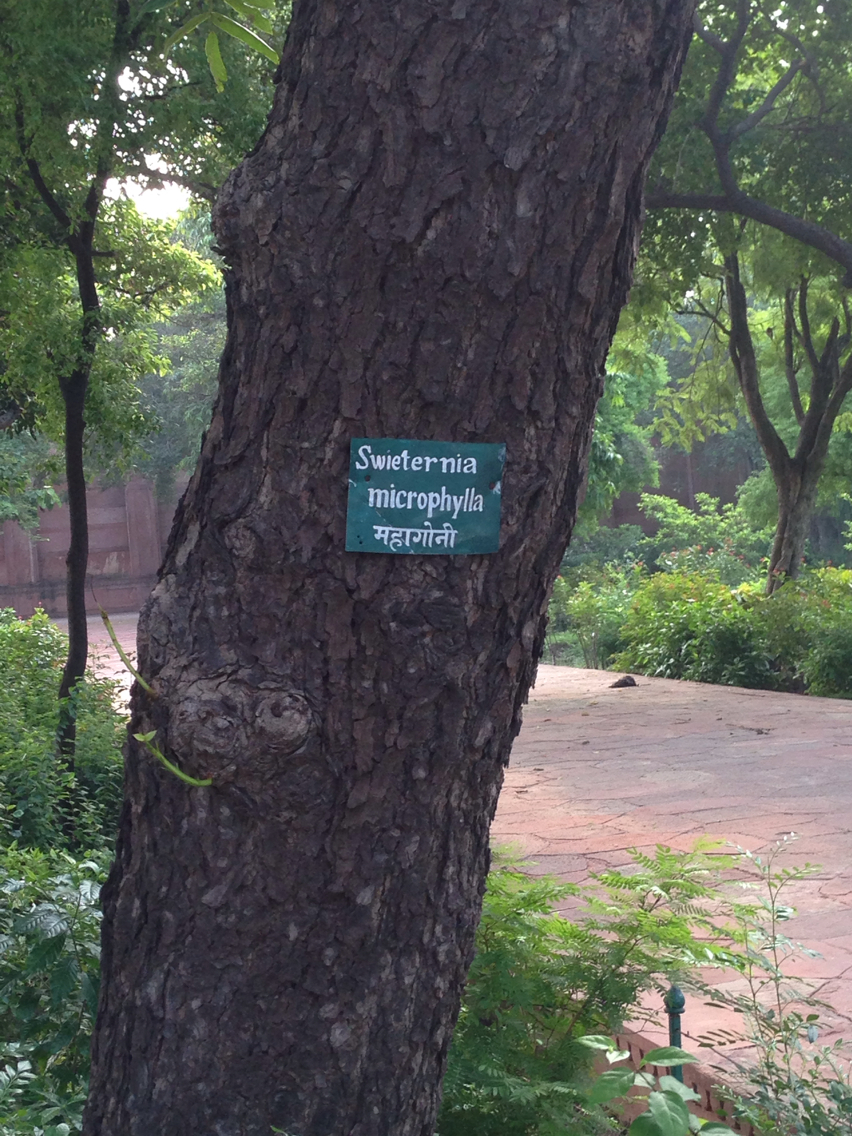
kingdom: Plantae
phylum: Tracheophyta
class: Magnoliopsida
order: Sapindales
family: Meliaceae
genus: Swietenia
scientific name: Swietenia macrophylla
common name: Honduras mahogany
